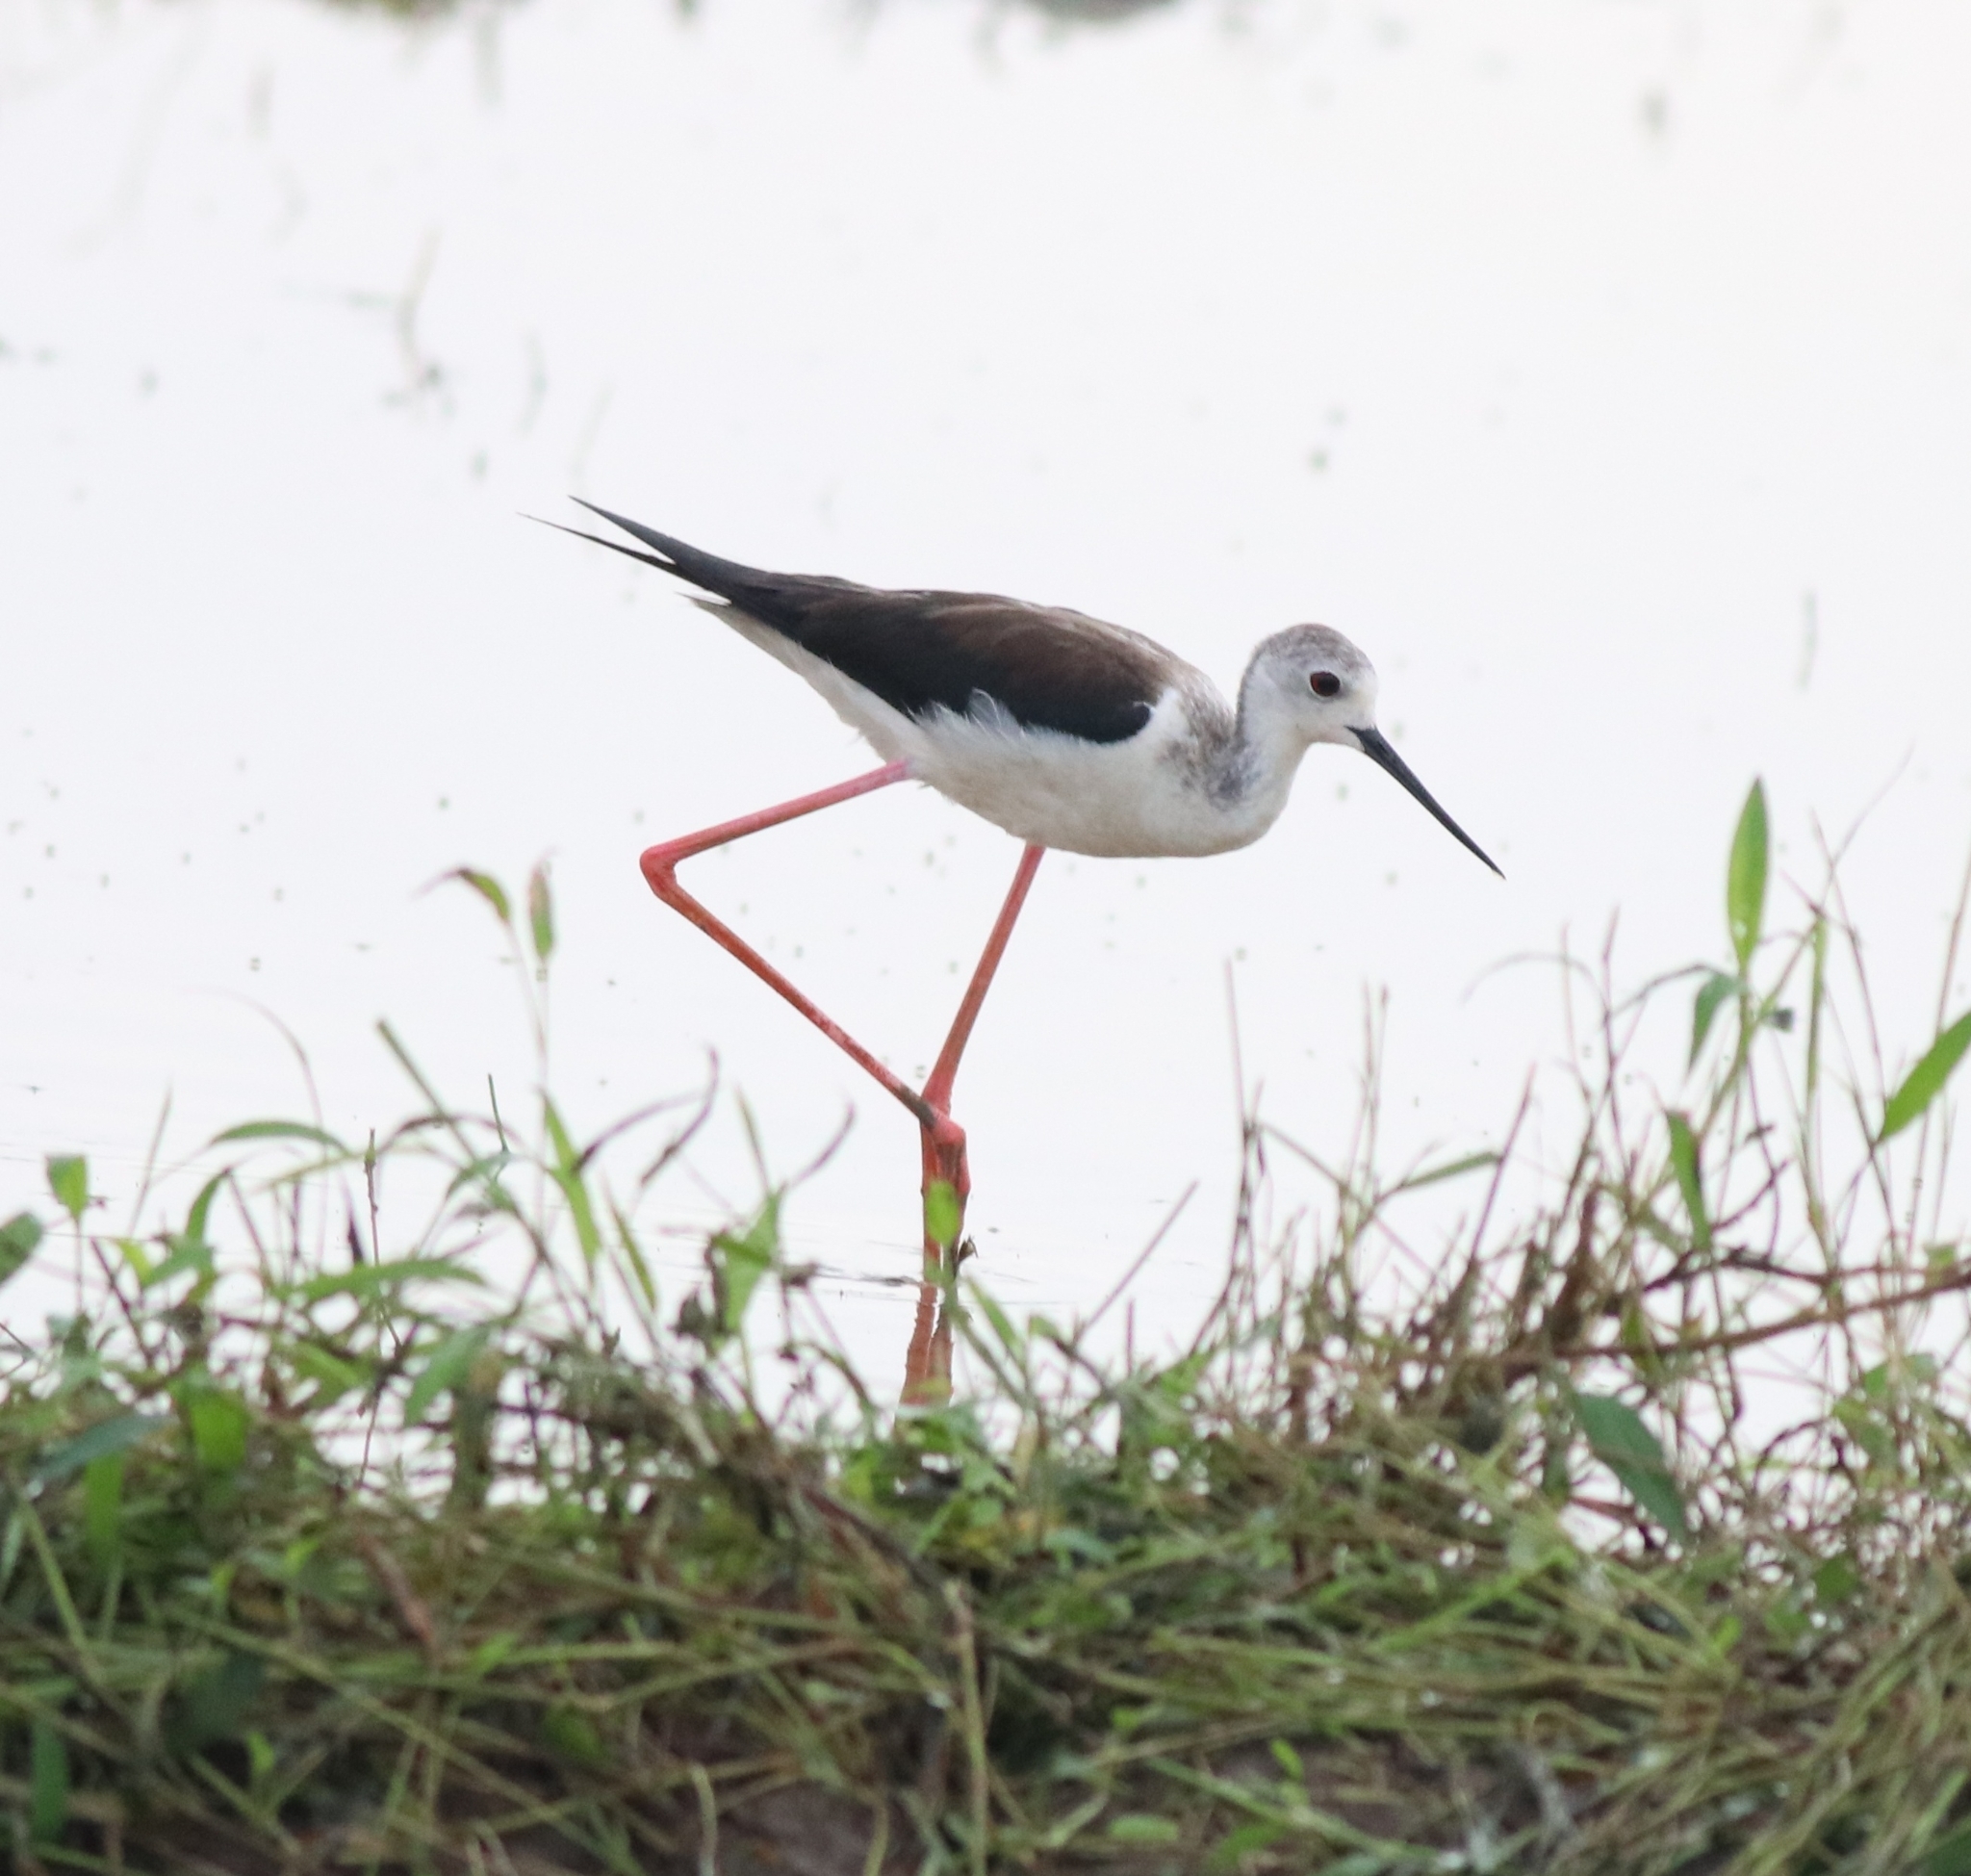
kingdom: Animalia
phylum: Chordata
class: Aves
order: Charadriiformes
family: Recurvirostridae
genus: Himantopus
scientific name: Himantopus himantopus
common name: Black-winged stilt
